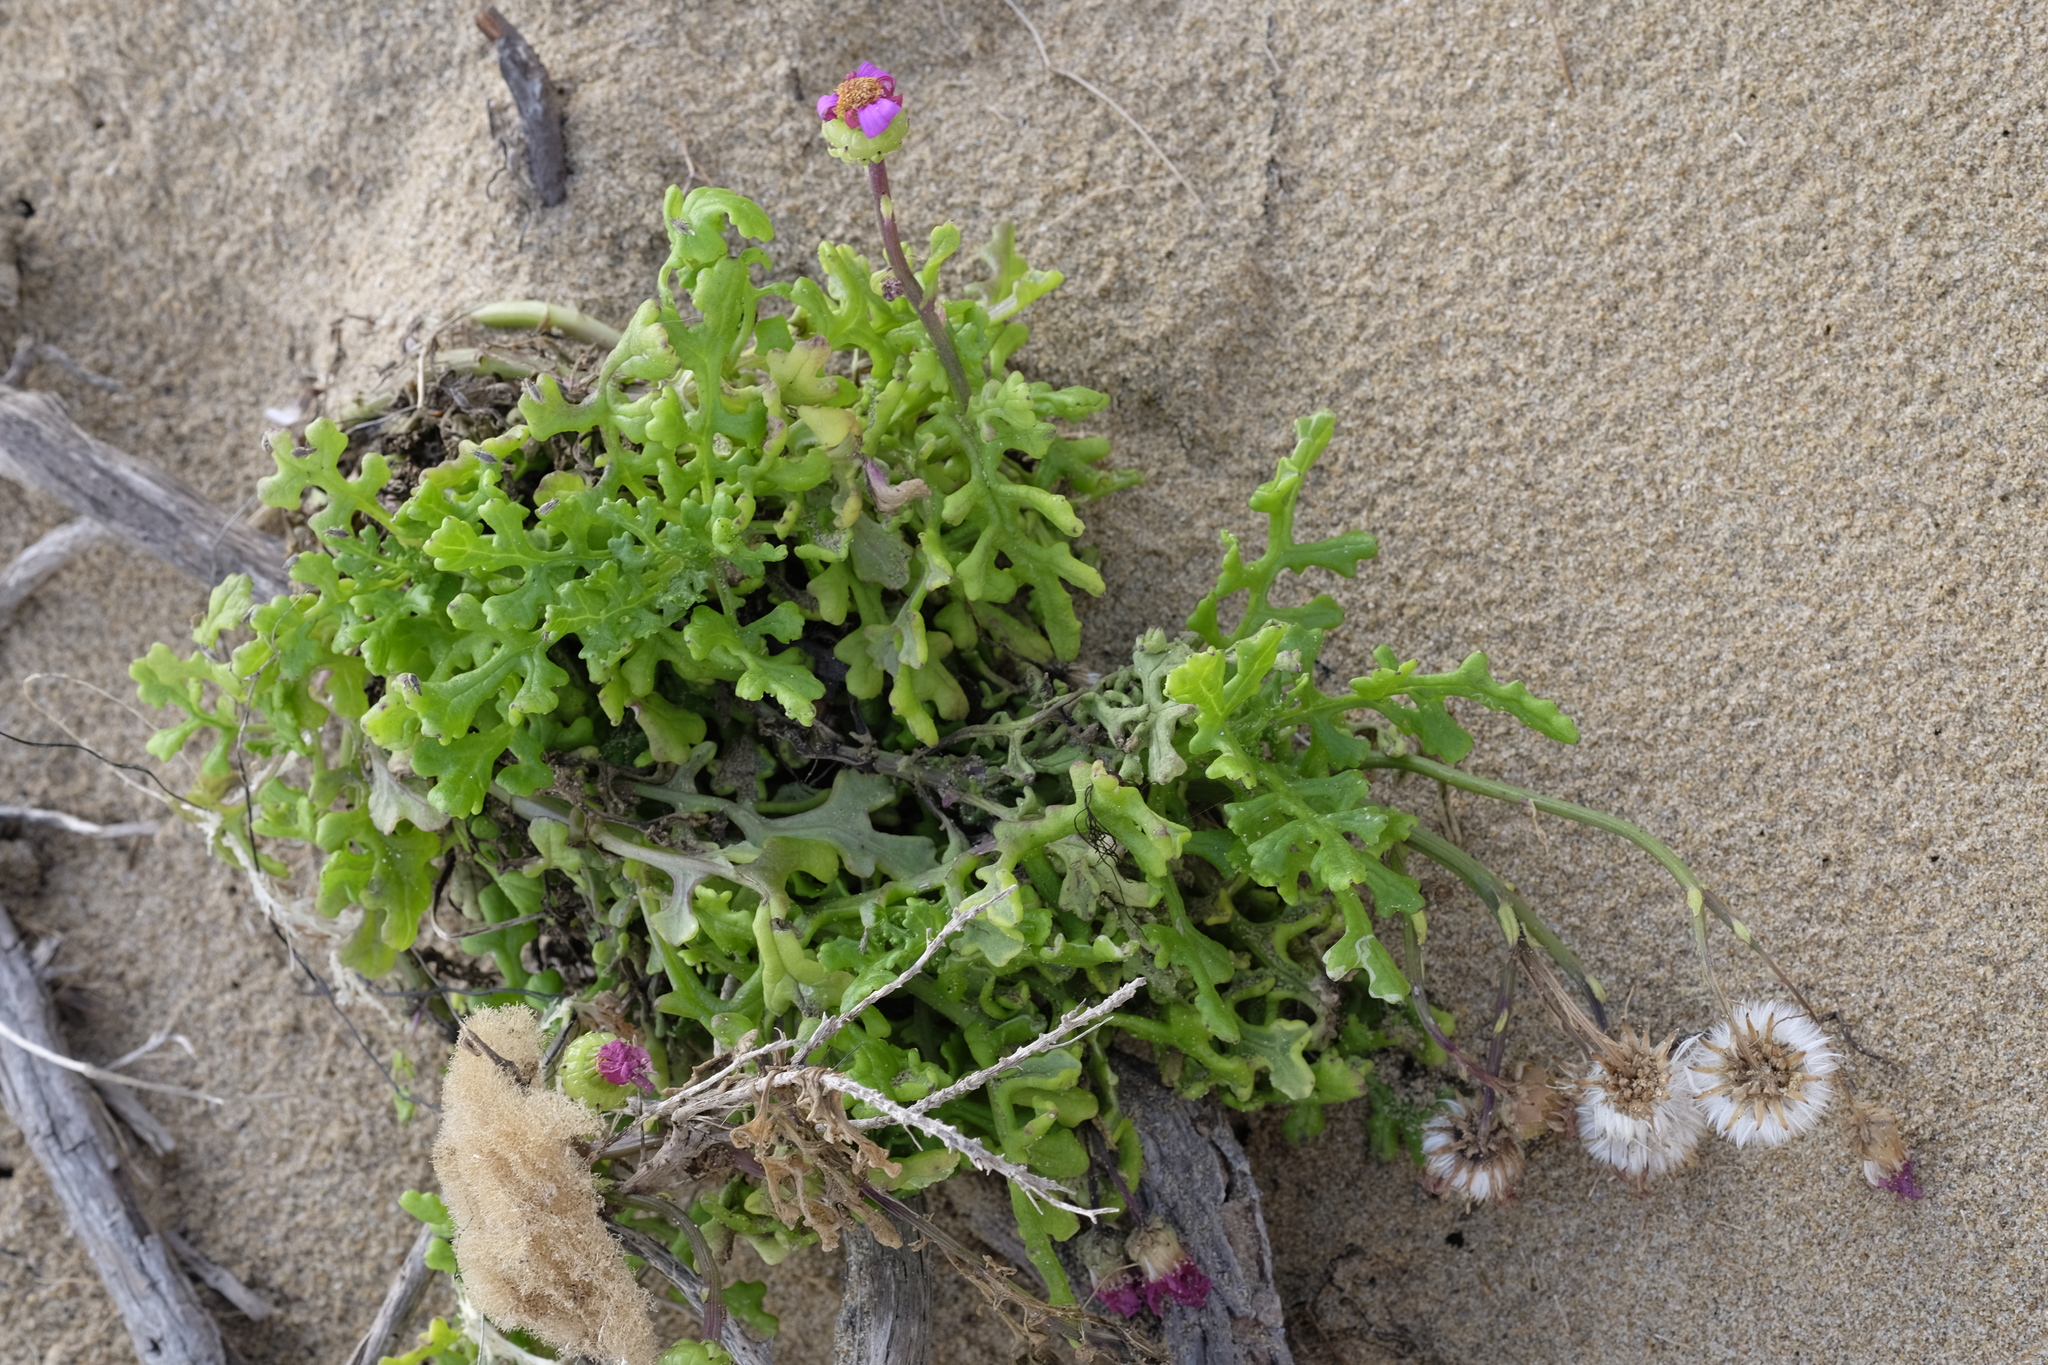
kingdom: Plantae
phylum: Tracheophyta
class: Magnoliopsida
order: Asterales
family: Asteraceae
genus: Senecio
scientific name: Senecio elegans
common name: Purple groundsel
